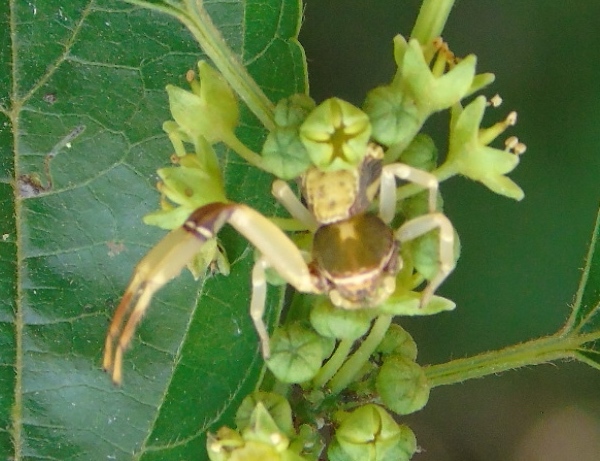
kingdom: Animalia
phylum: Arthropoda
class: Arachnida
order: Araneae
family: Thomisidae
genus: Misumenoides
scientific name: Misumenoides
